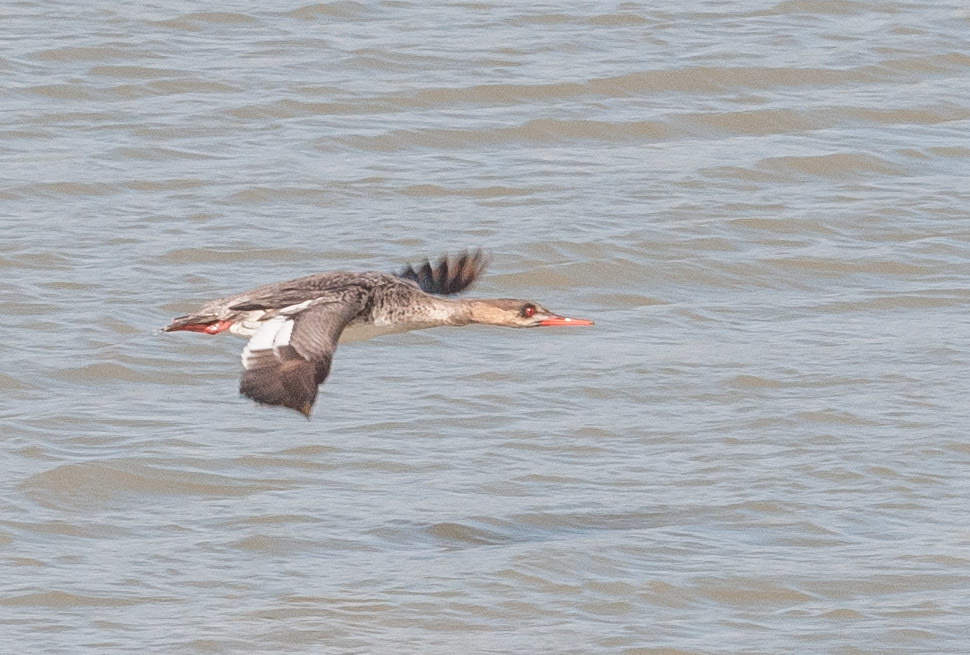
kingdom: Animalia
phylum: Chordata
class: Aves
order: Anseriformes
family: Anatidae
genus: Mergus
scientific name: Mergus serrator
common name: Red-breasted merganser
